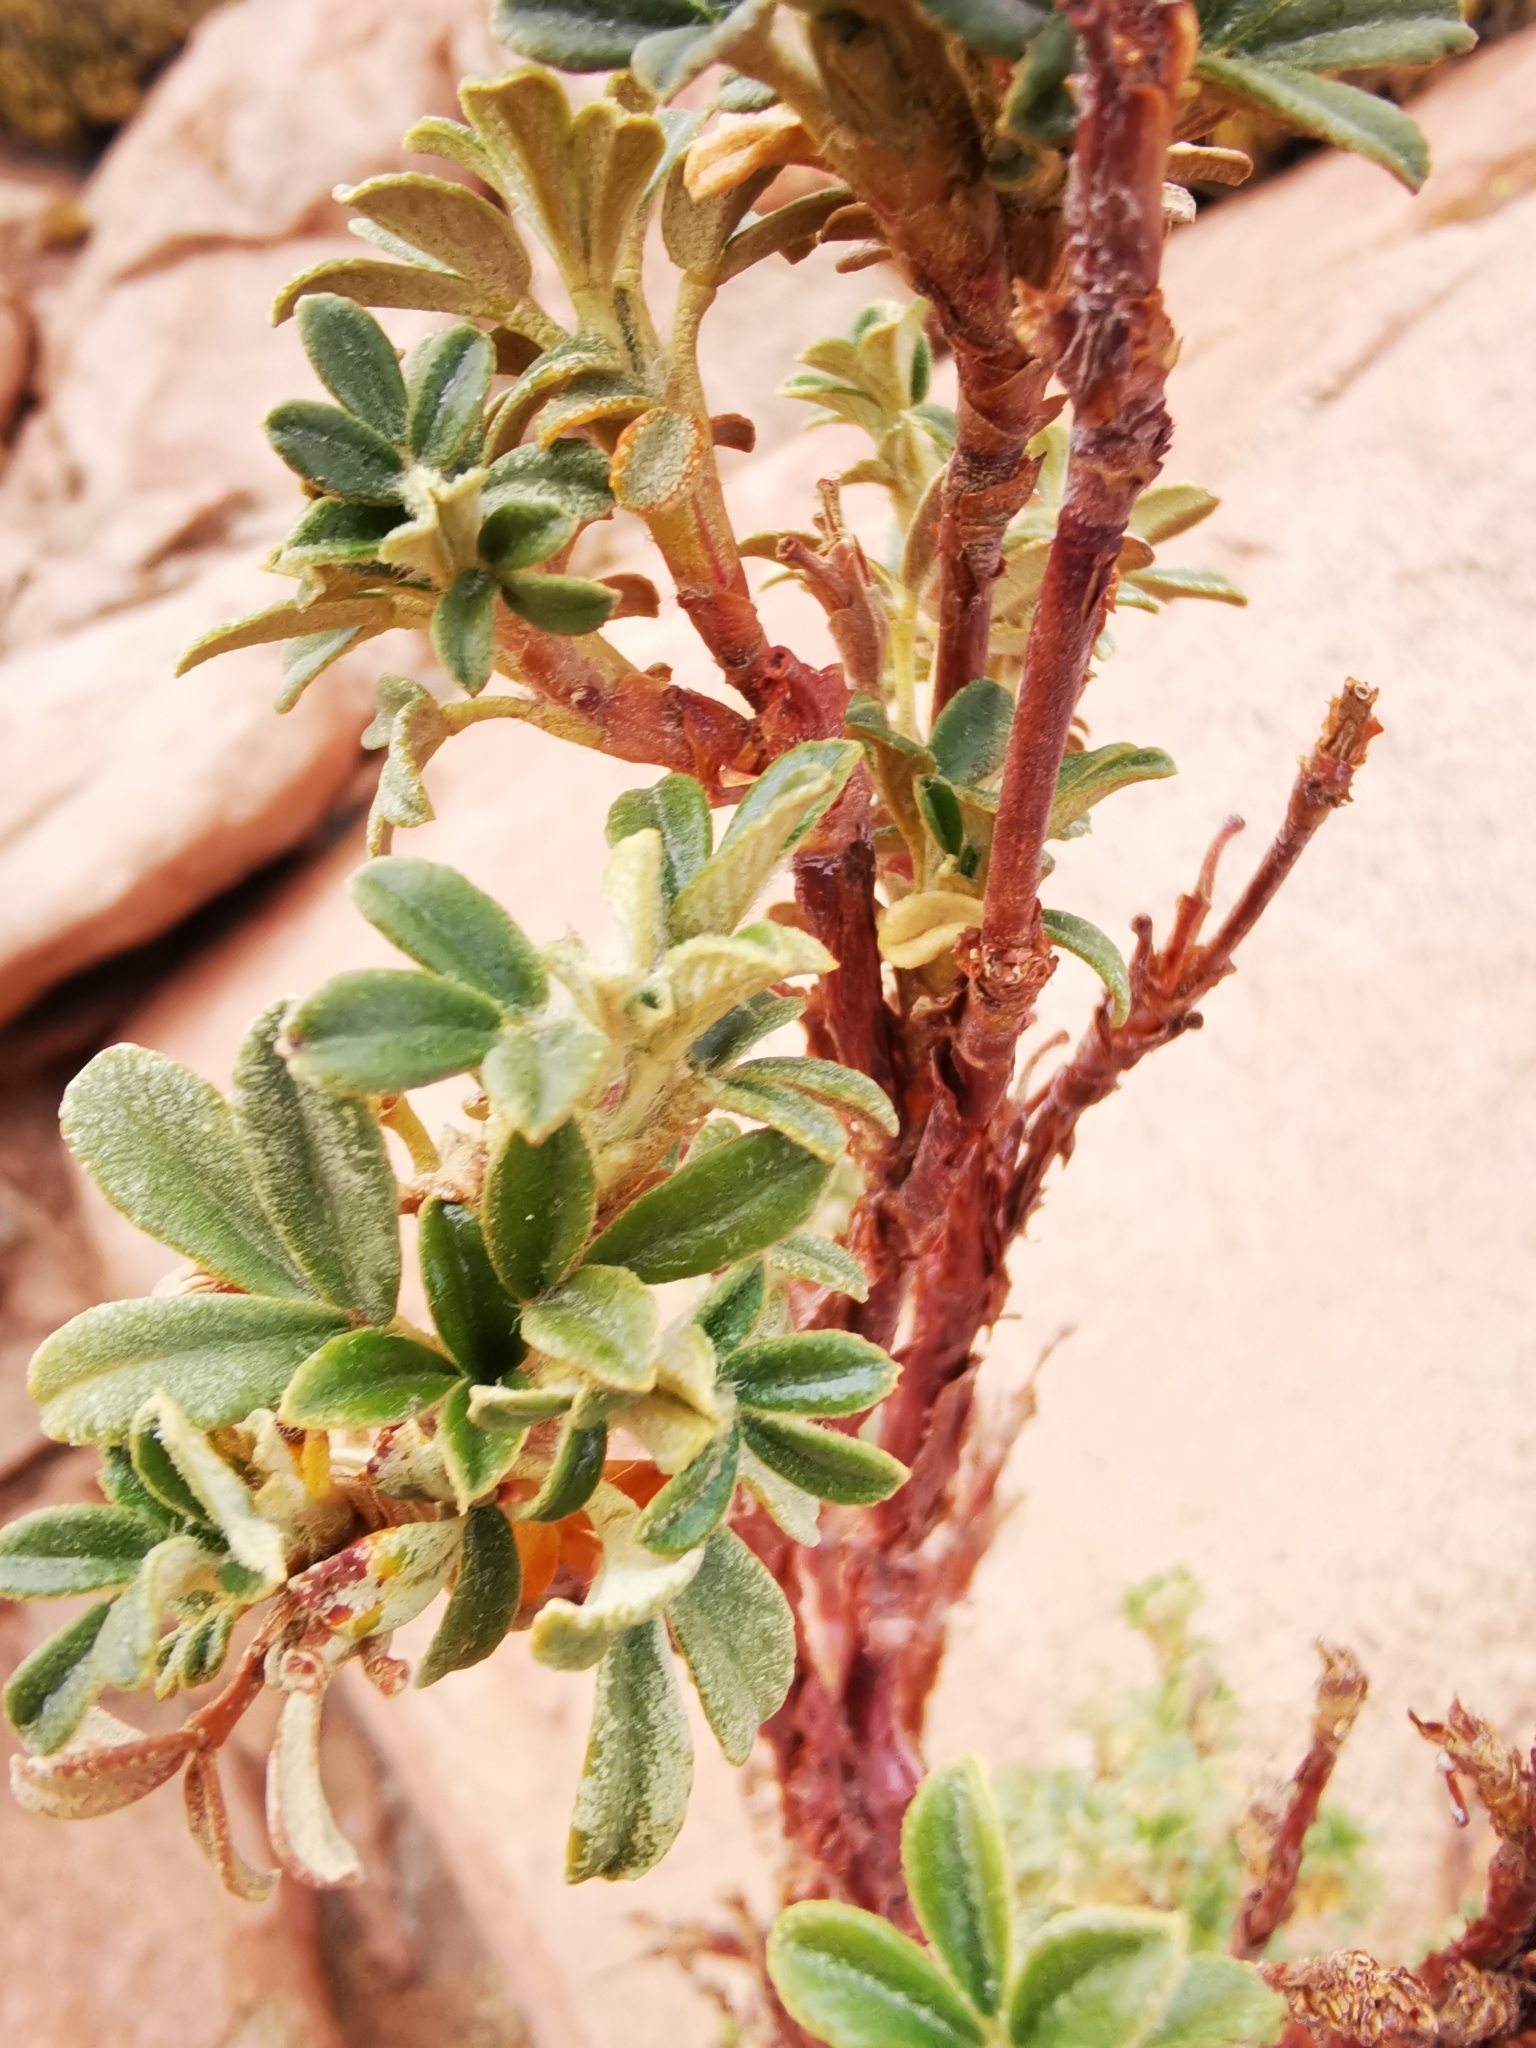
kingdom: Plantae
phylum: Tracheophyta
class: Magnoliopsida
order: Rosales
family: Rosaceae
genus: Polylepis
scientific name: Polylepis tarapacana
